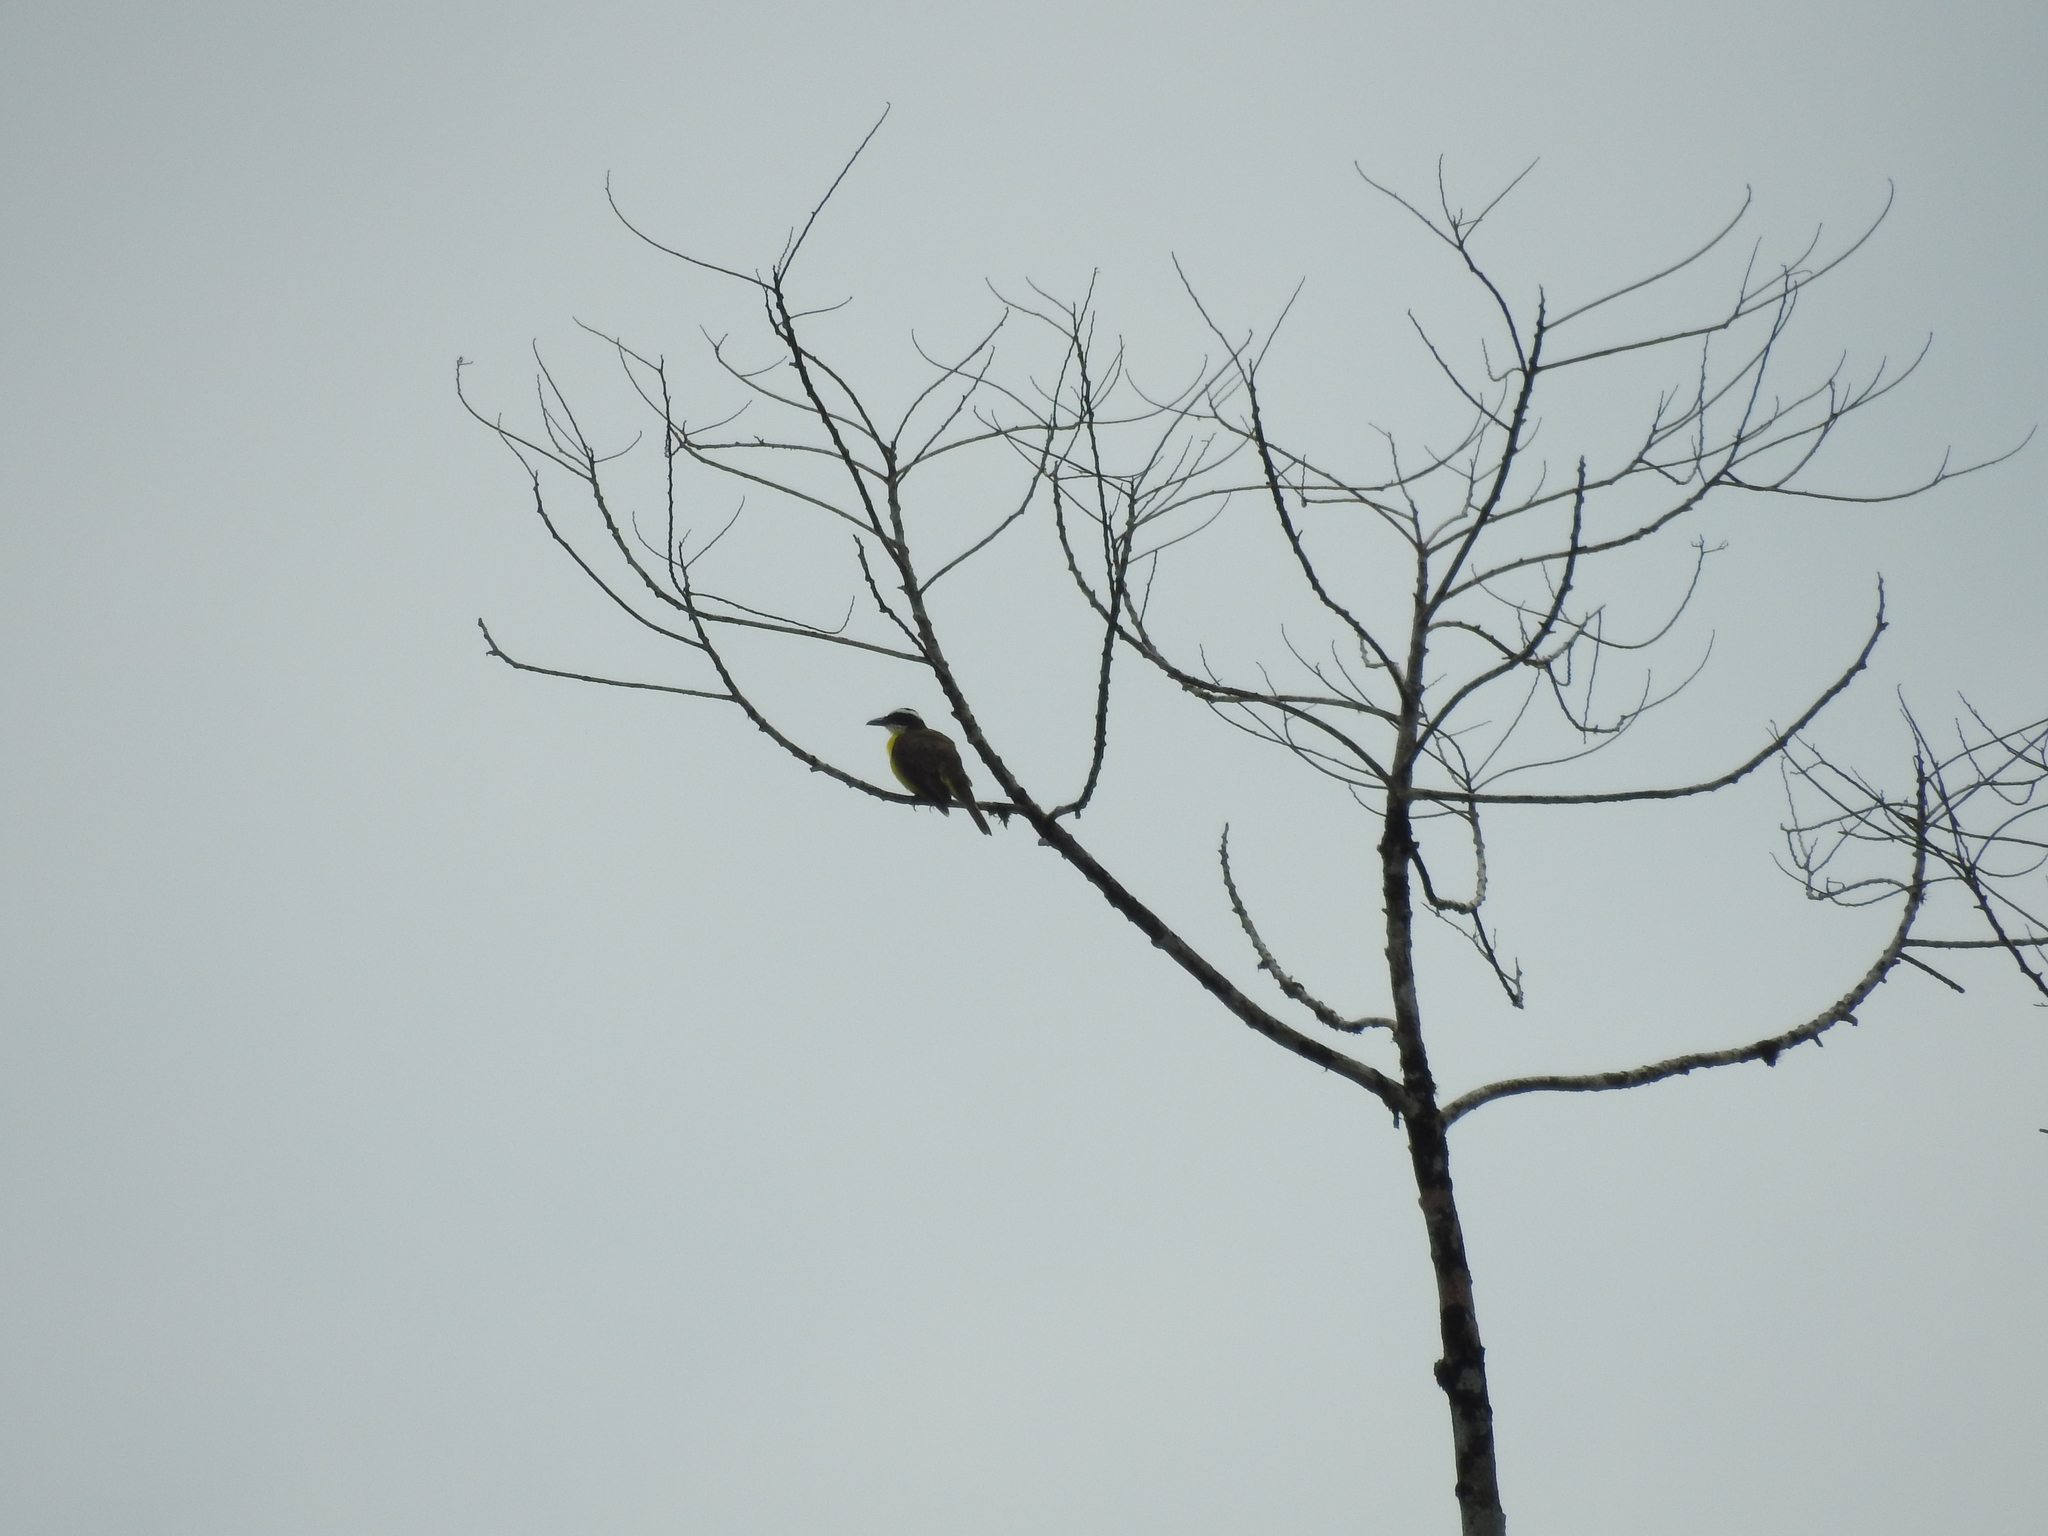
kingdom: Animalia
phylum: Chordata
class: Aves
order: Passeriformes
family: Tyrannidae
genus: Megarynchus
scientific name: Megarynchus pitangua
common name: Boat-billed flycatcher
